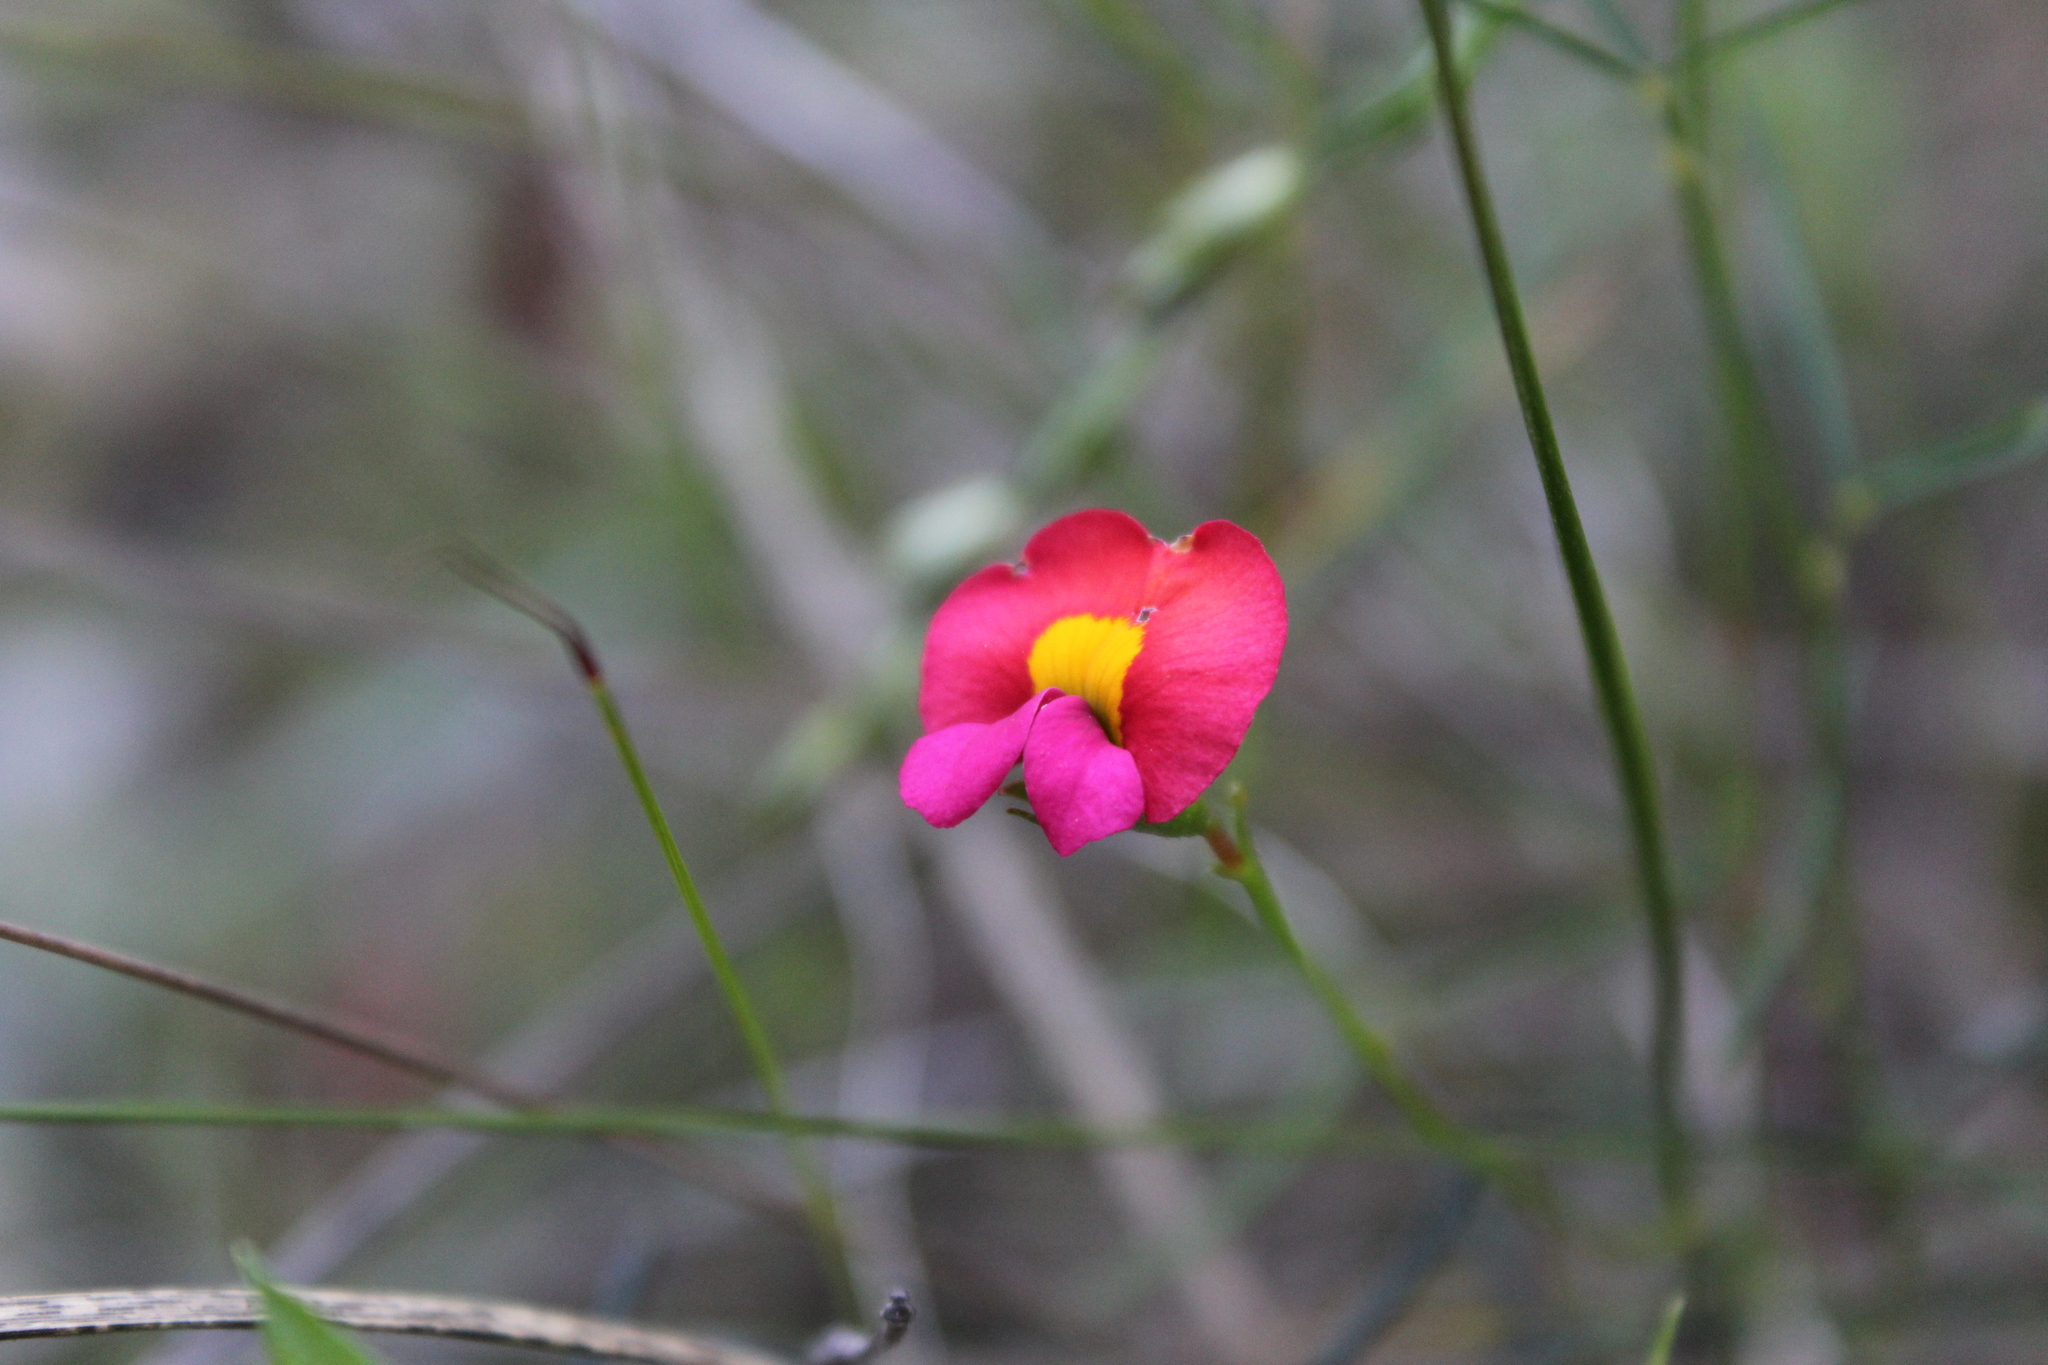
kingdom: Plantae
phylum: Tracheophyta
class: Magnoliopsida
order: Fabales
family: Fabaceae
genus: Chorizema
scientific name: Chorizema rhombeum
